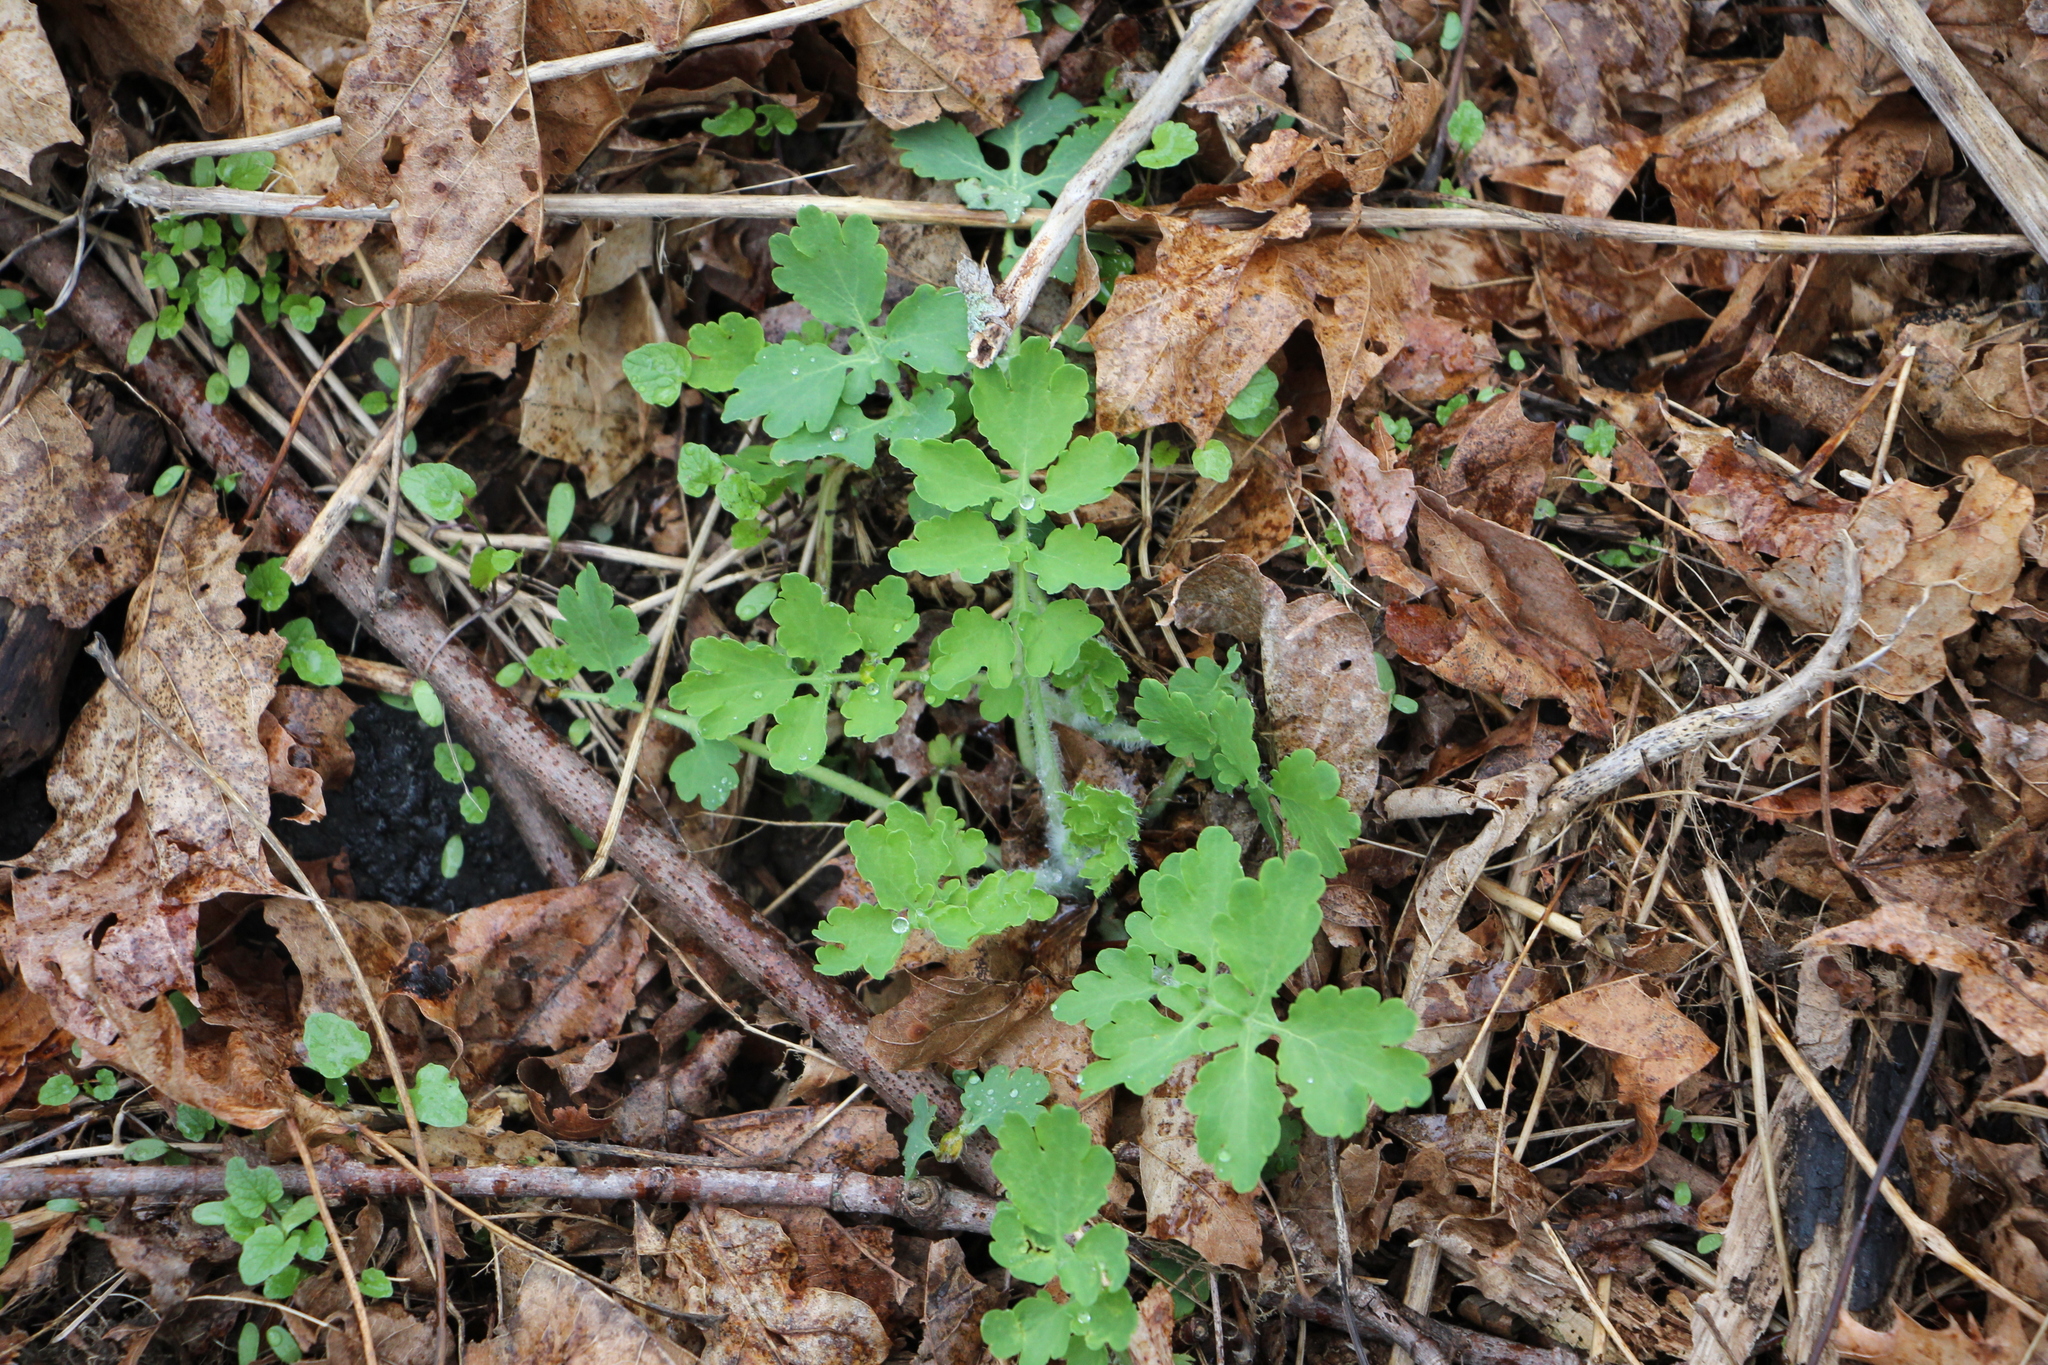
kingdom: Plantae
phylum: Tracheophyta
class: Magnoliopsida
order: Ranunculales
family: Papaveraceae
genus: Chelidonium
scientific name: Chelidonium majus
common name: Greater celandine
